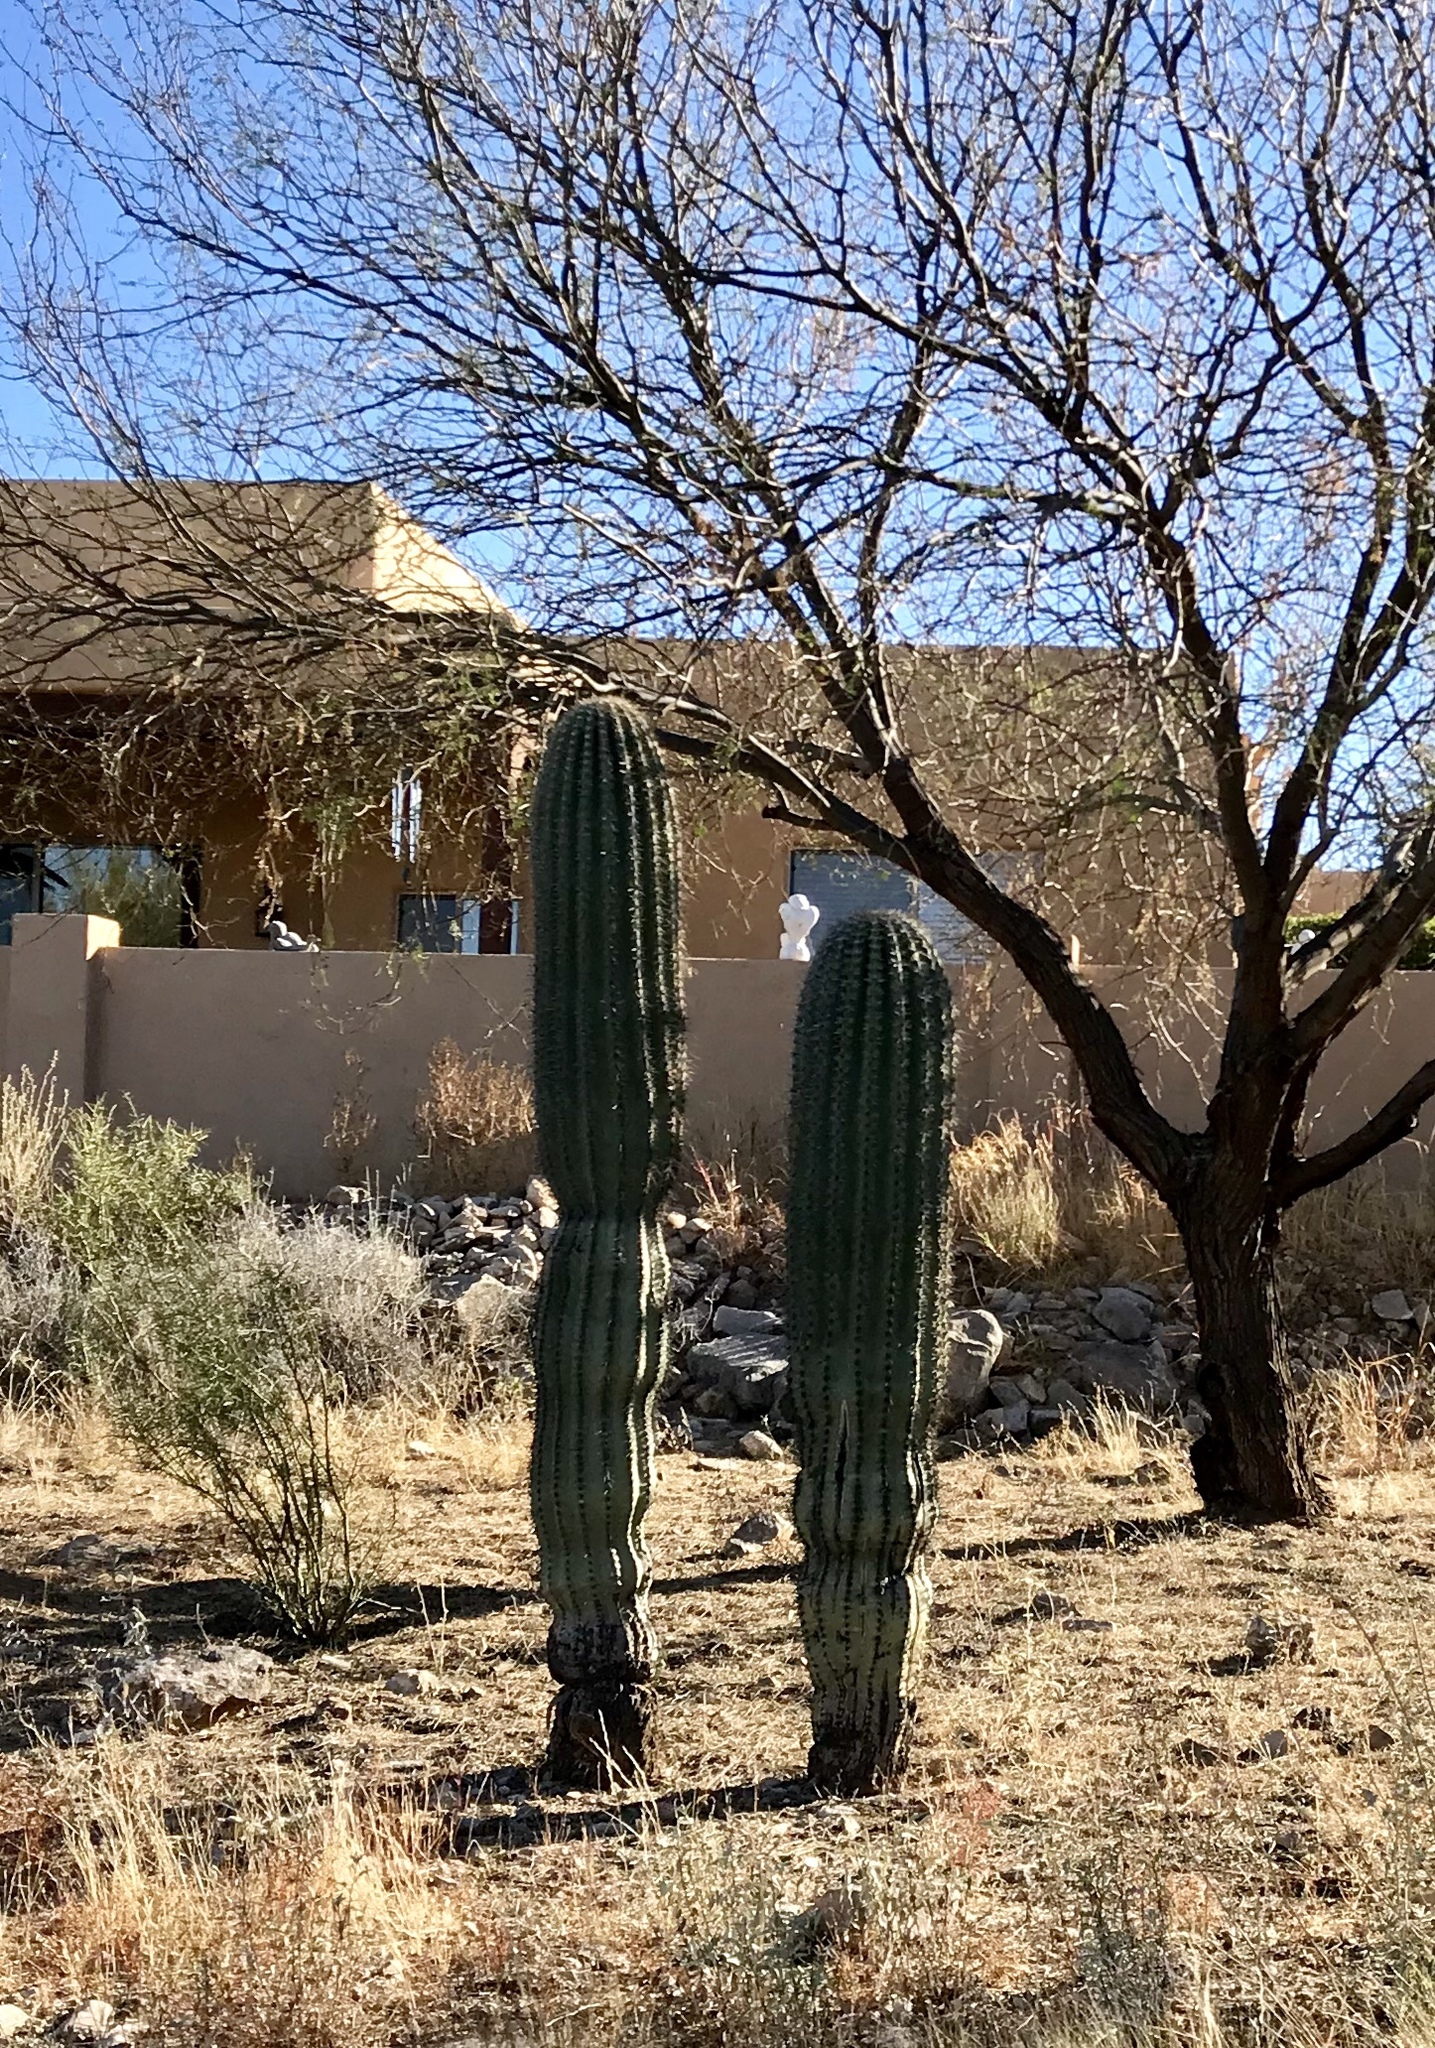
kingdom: Plantae
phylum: Tracheophyta
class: Magnoliopsida
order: Caryophyllales
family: Cactaceae
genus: Carnegiea
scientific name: Carnegiea gigantea
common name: Saguaro
